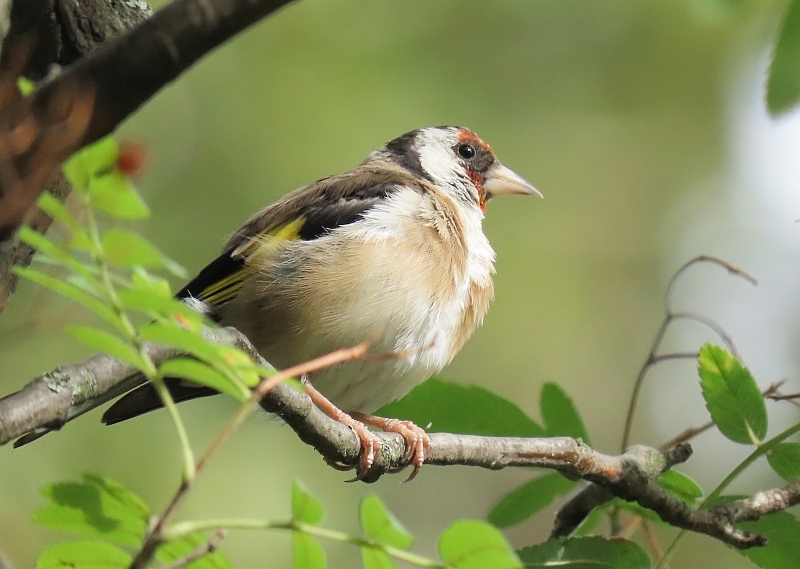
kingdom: Animalia
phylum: Chordata
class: Aves
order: Passeriformes
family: Fringillidae
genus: Carduelis
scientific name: Carduelis carduelis
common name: European goldfinch
